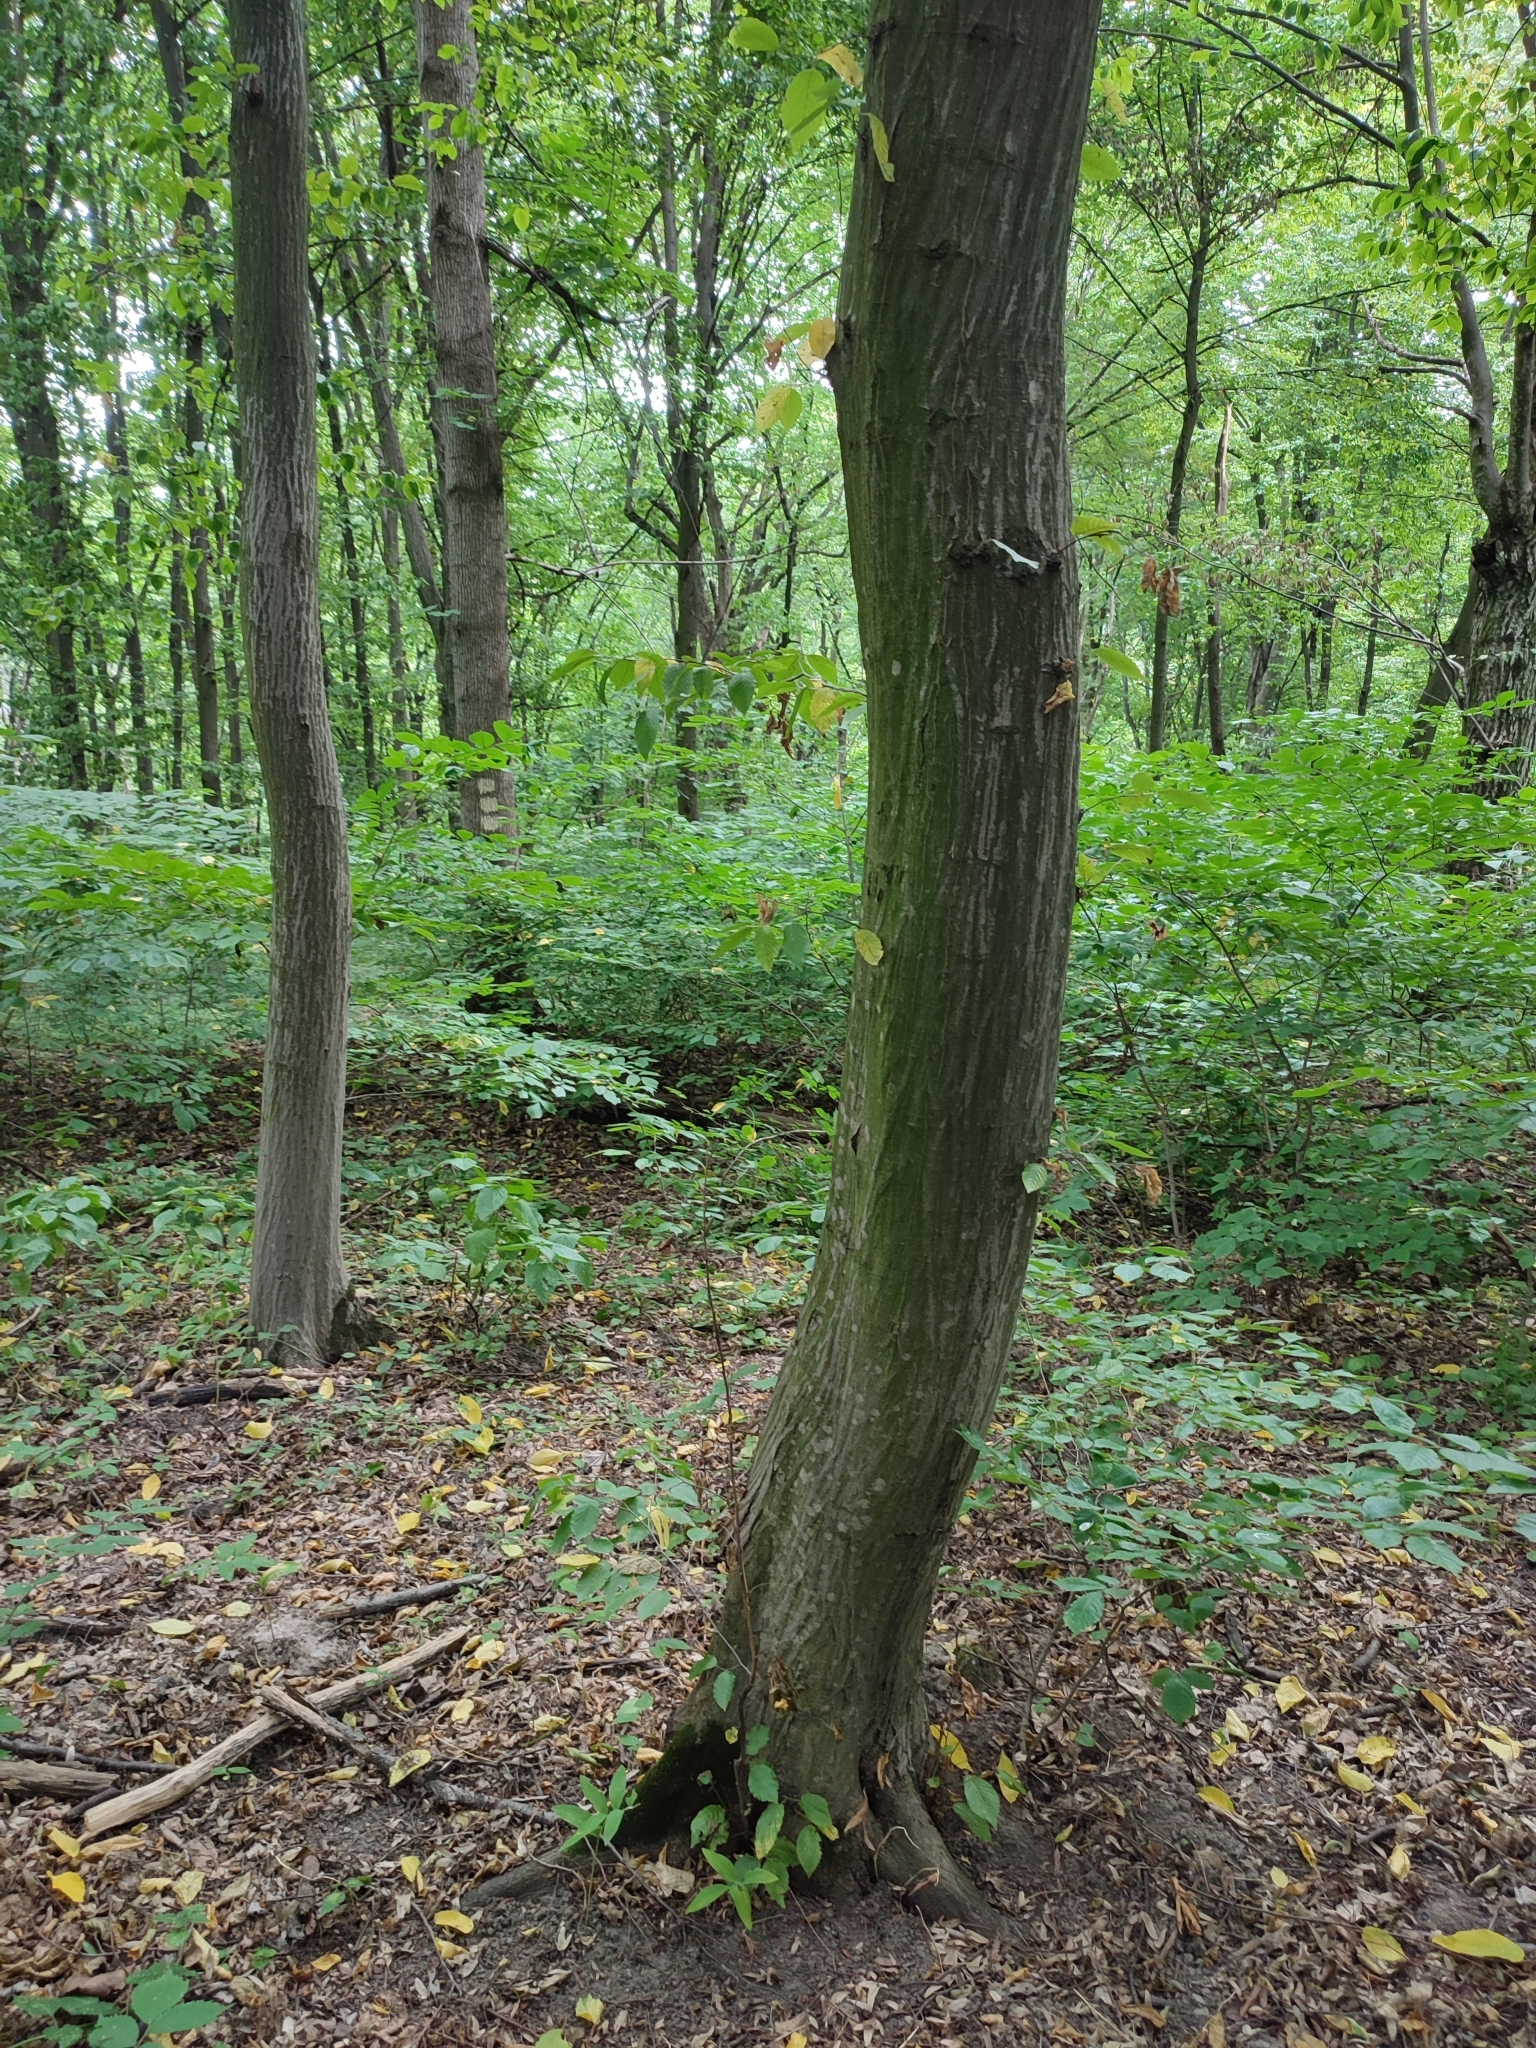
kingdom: Plantae
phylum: Tracheophyta
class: Magnoliopsida
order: Fagales
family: Betulaceae
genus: Carpinus
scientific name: Carpinus betulus
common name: Hornbeam
